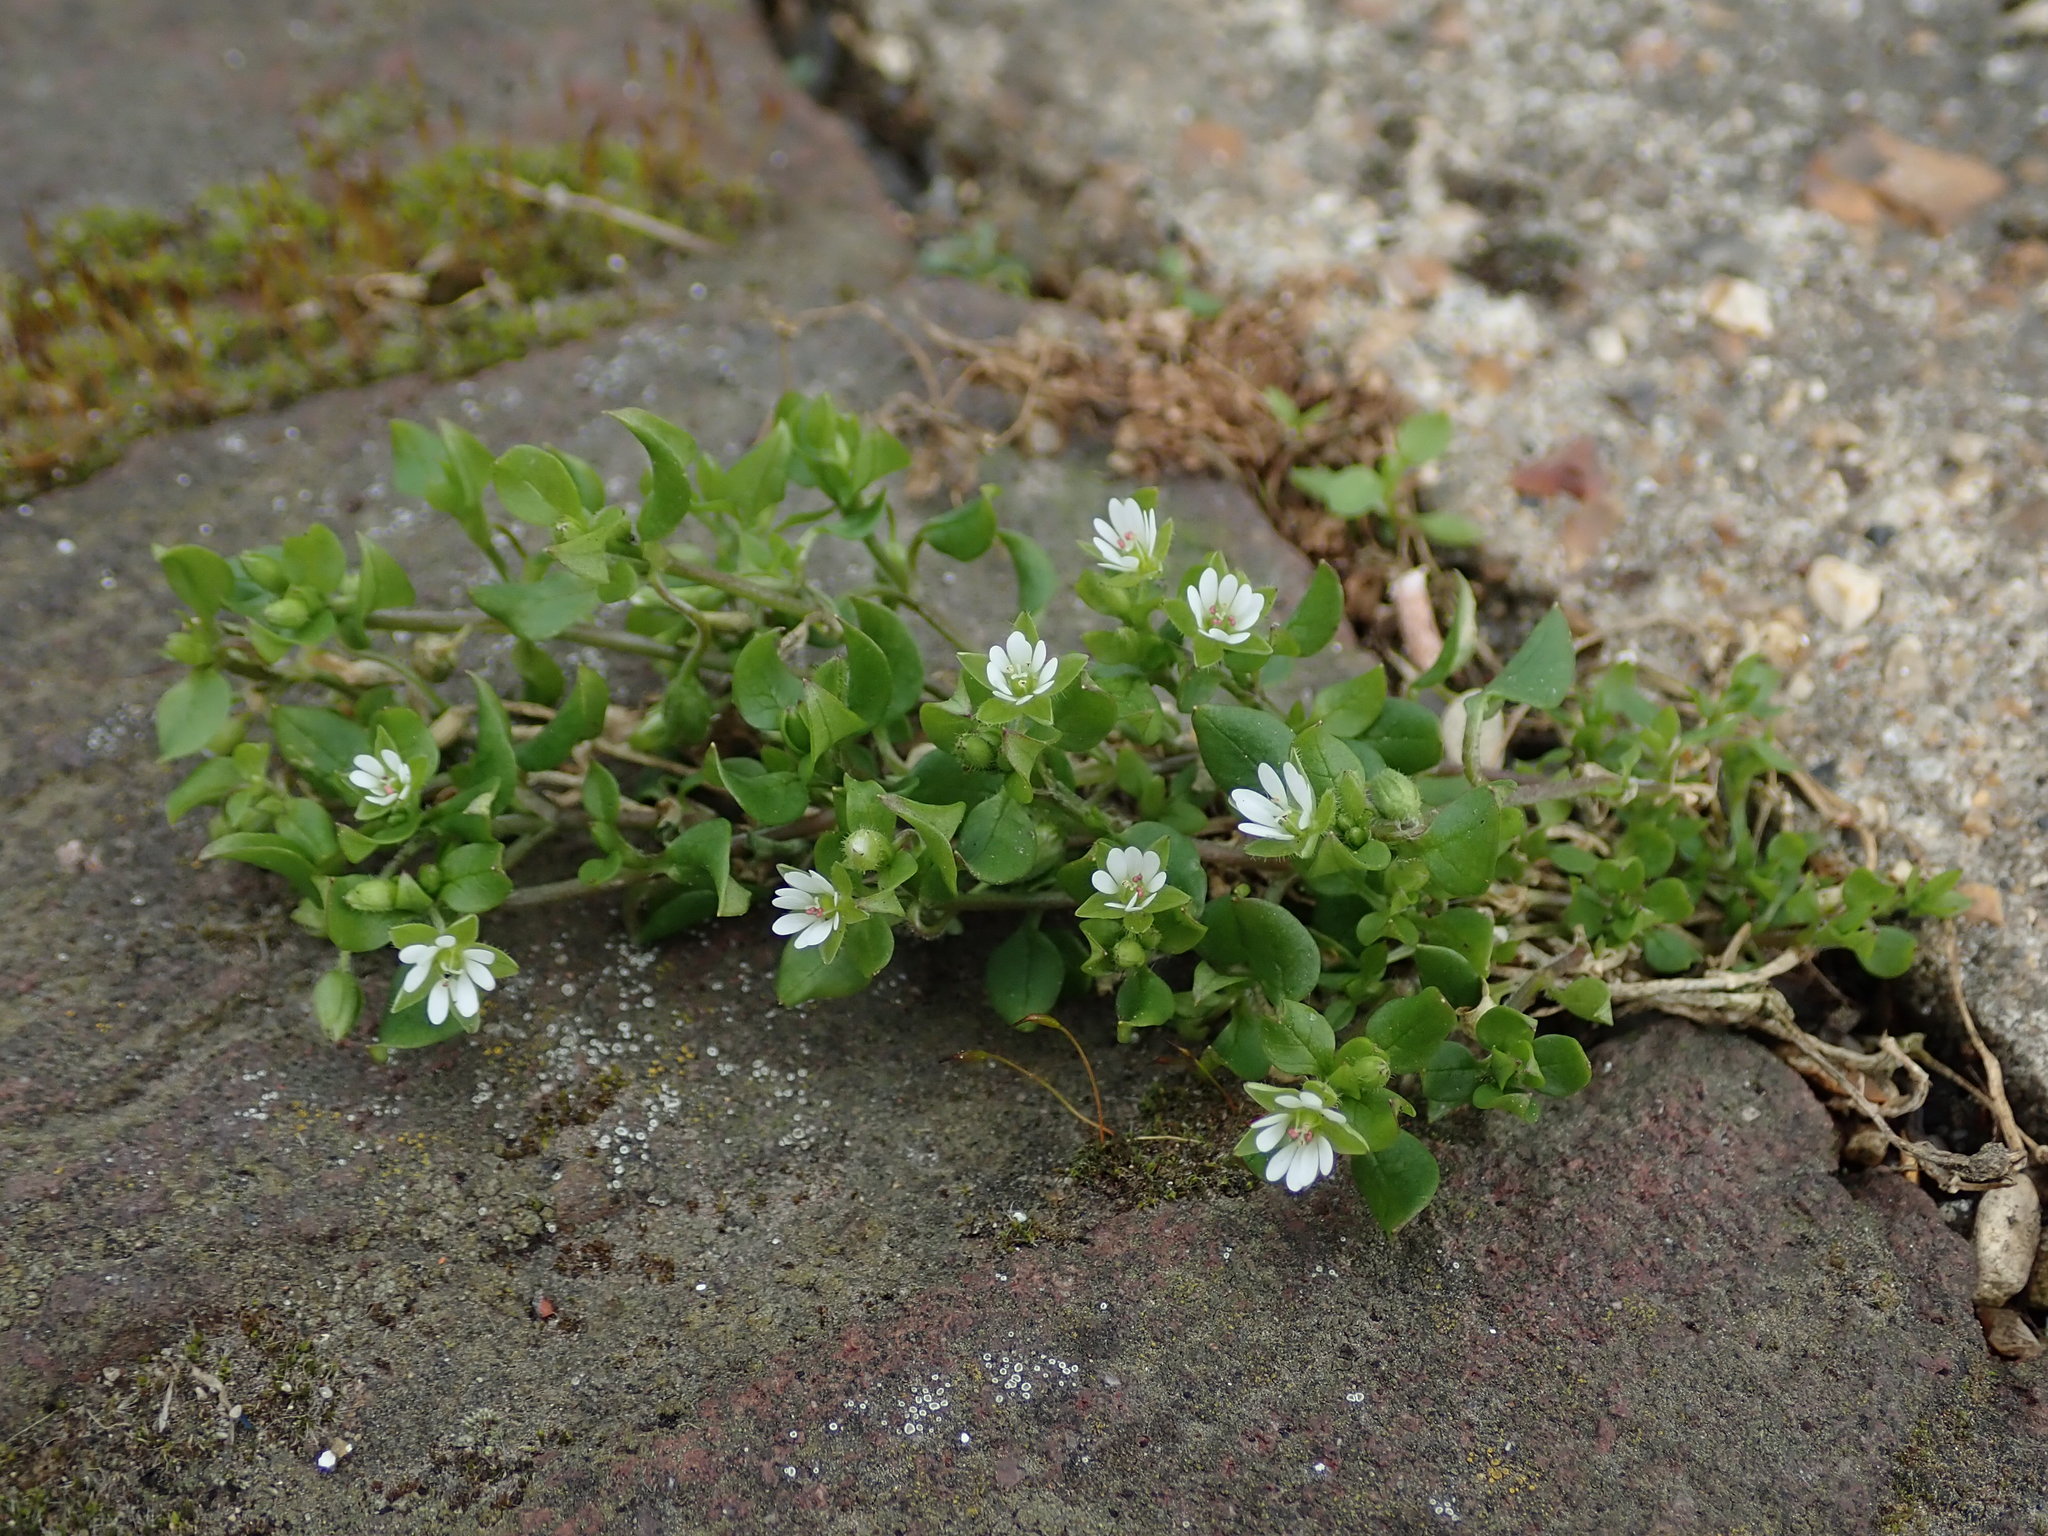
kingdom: Plantae
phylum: Tracheophyta
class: Magnoliopsida
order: Caryophyllales
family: Caryophyllaceae
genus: Stellaria
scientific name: Stellaria media
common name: Common chickweed
